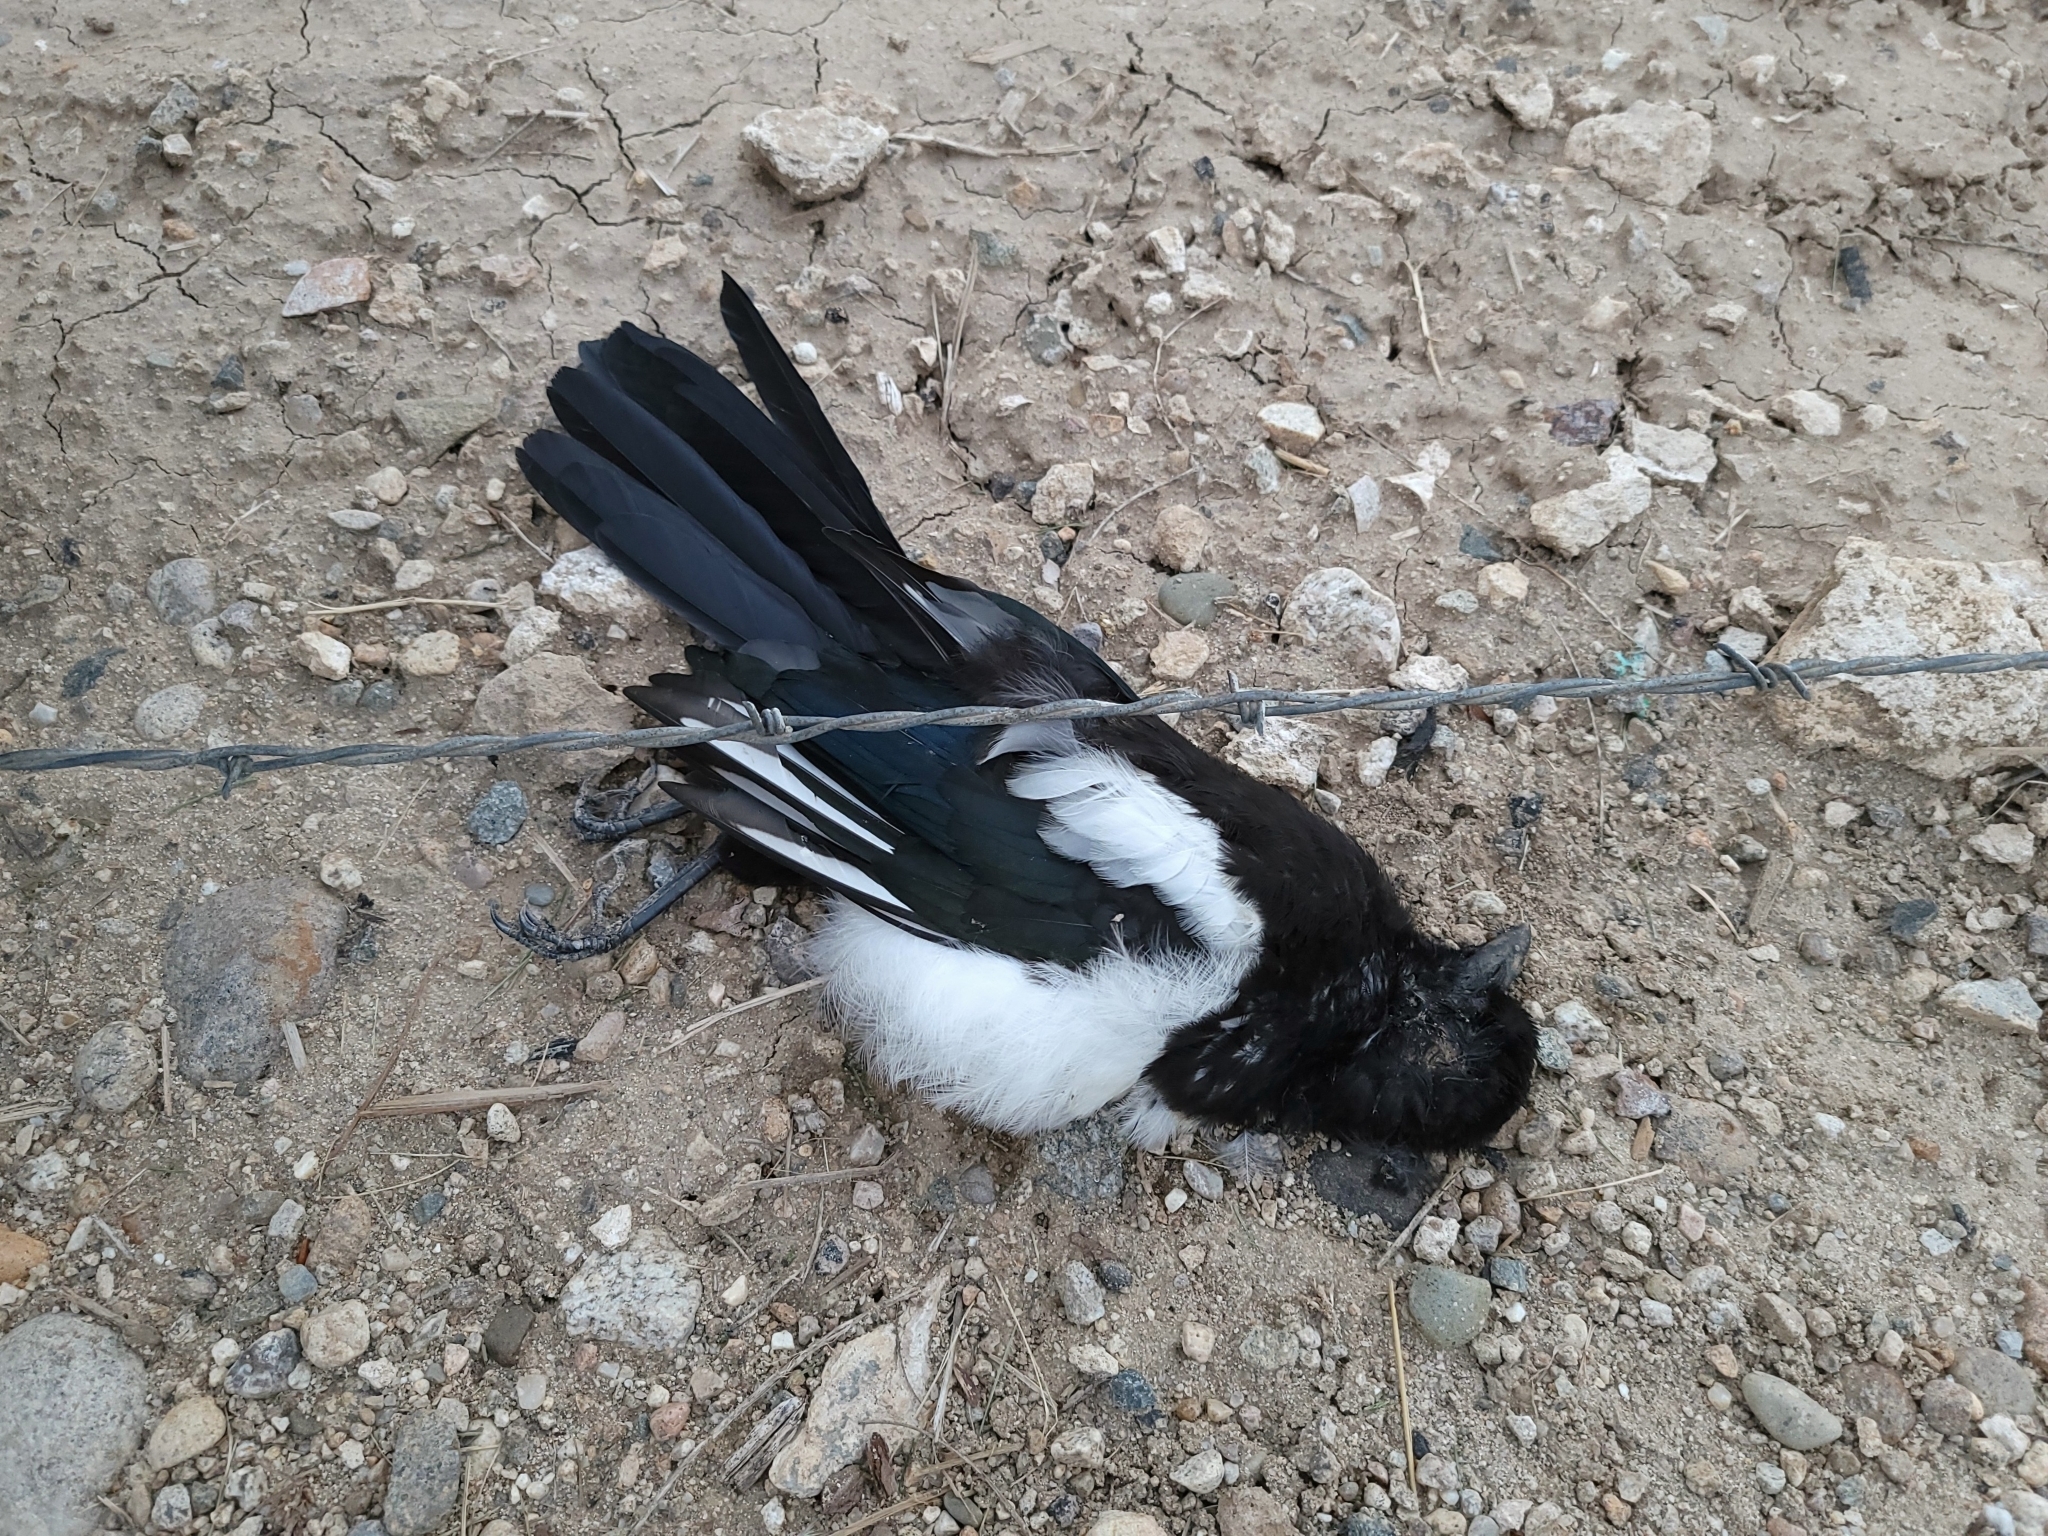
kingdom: Animalia
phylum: Chordata
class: Aves
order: Passeriformes
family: Corvidae
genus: Pica
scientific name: Pica hudsonia
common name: Black-billed magpie
